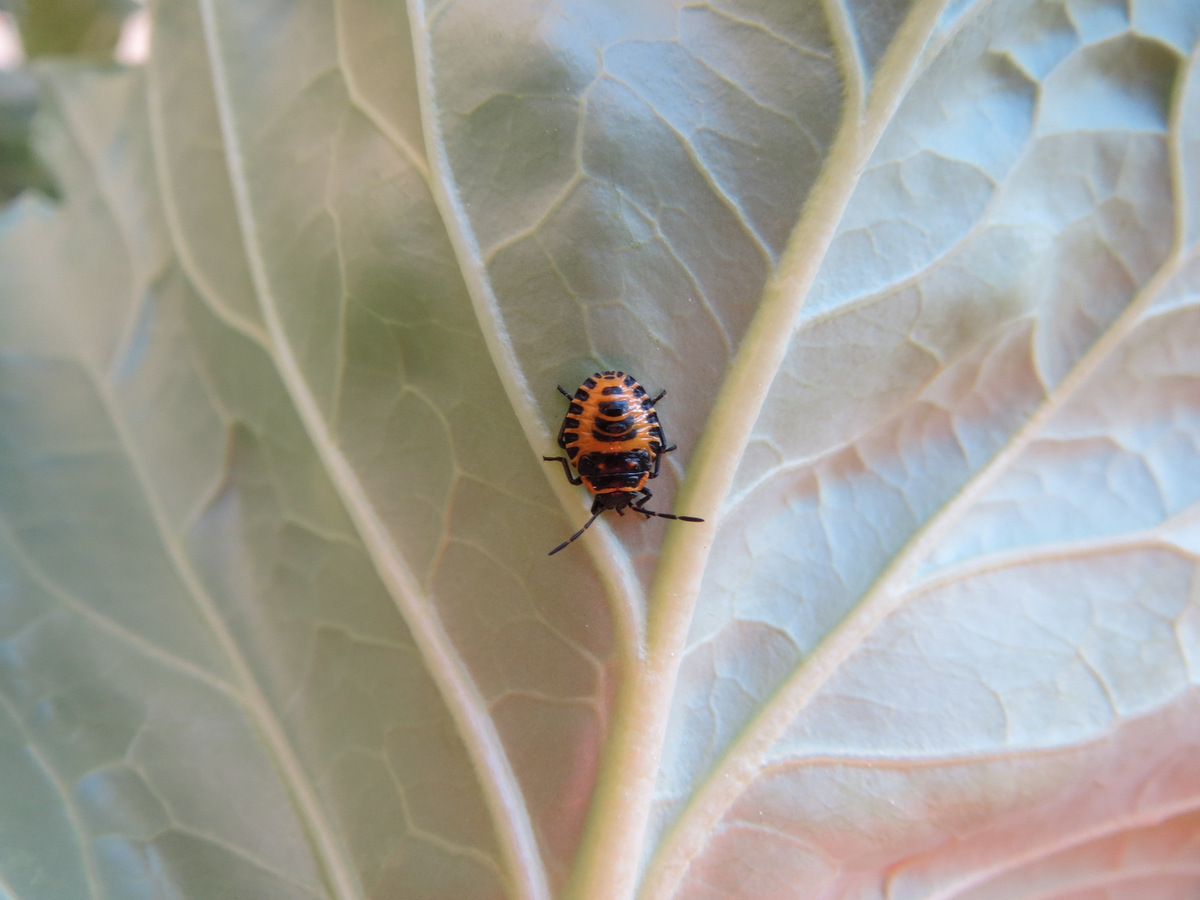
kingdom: Animalia
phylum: Arthropoda
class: Insecta
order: Hemiptera
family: Pentatomidae
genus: Eurydema
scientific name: Eurydema ventralis
